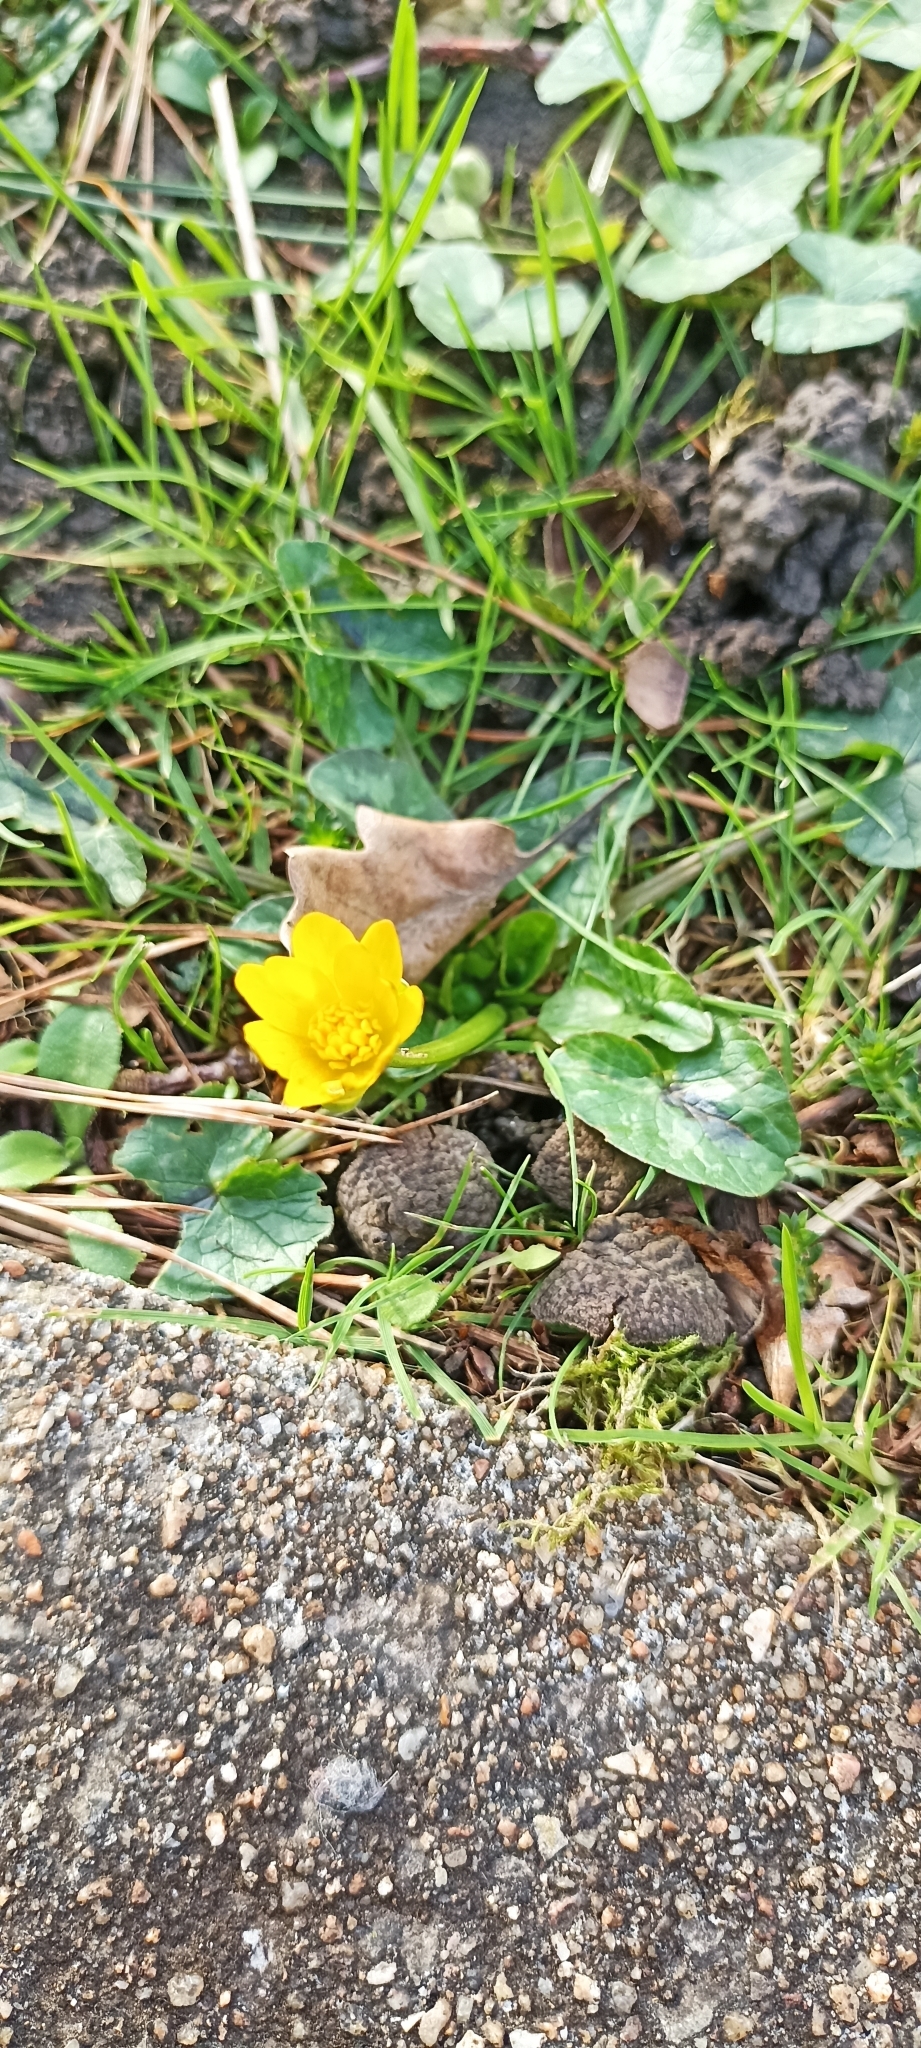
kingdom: Plantae
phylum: Tracheophyta
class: Magnoliopsida
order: Ranunculales
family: Ranunculaceae
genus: Ficaria
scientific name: Ficaria verna
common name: Lesser celandine
